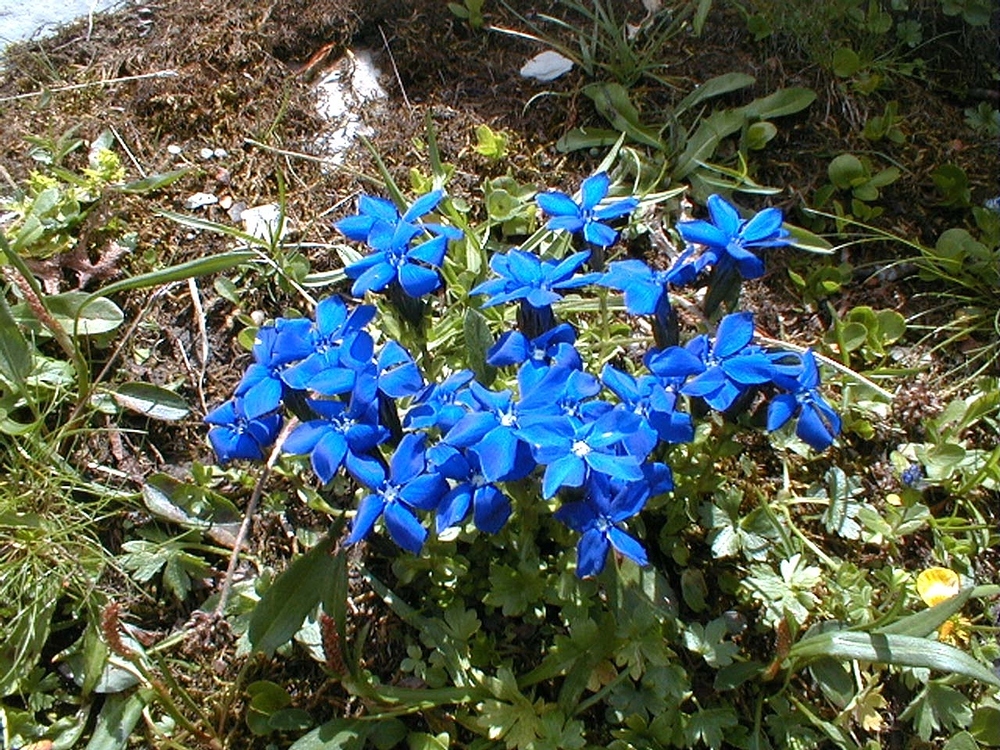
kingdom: Plantae
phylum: Tracheophyta
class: Magnoliopsida
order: Gentianales
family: Gentianaceae
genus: Gentiana
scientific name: Gentiana bavarica
